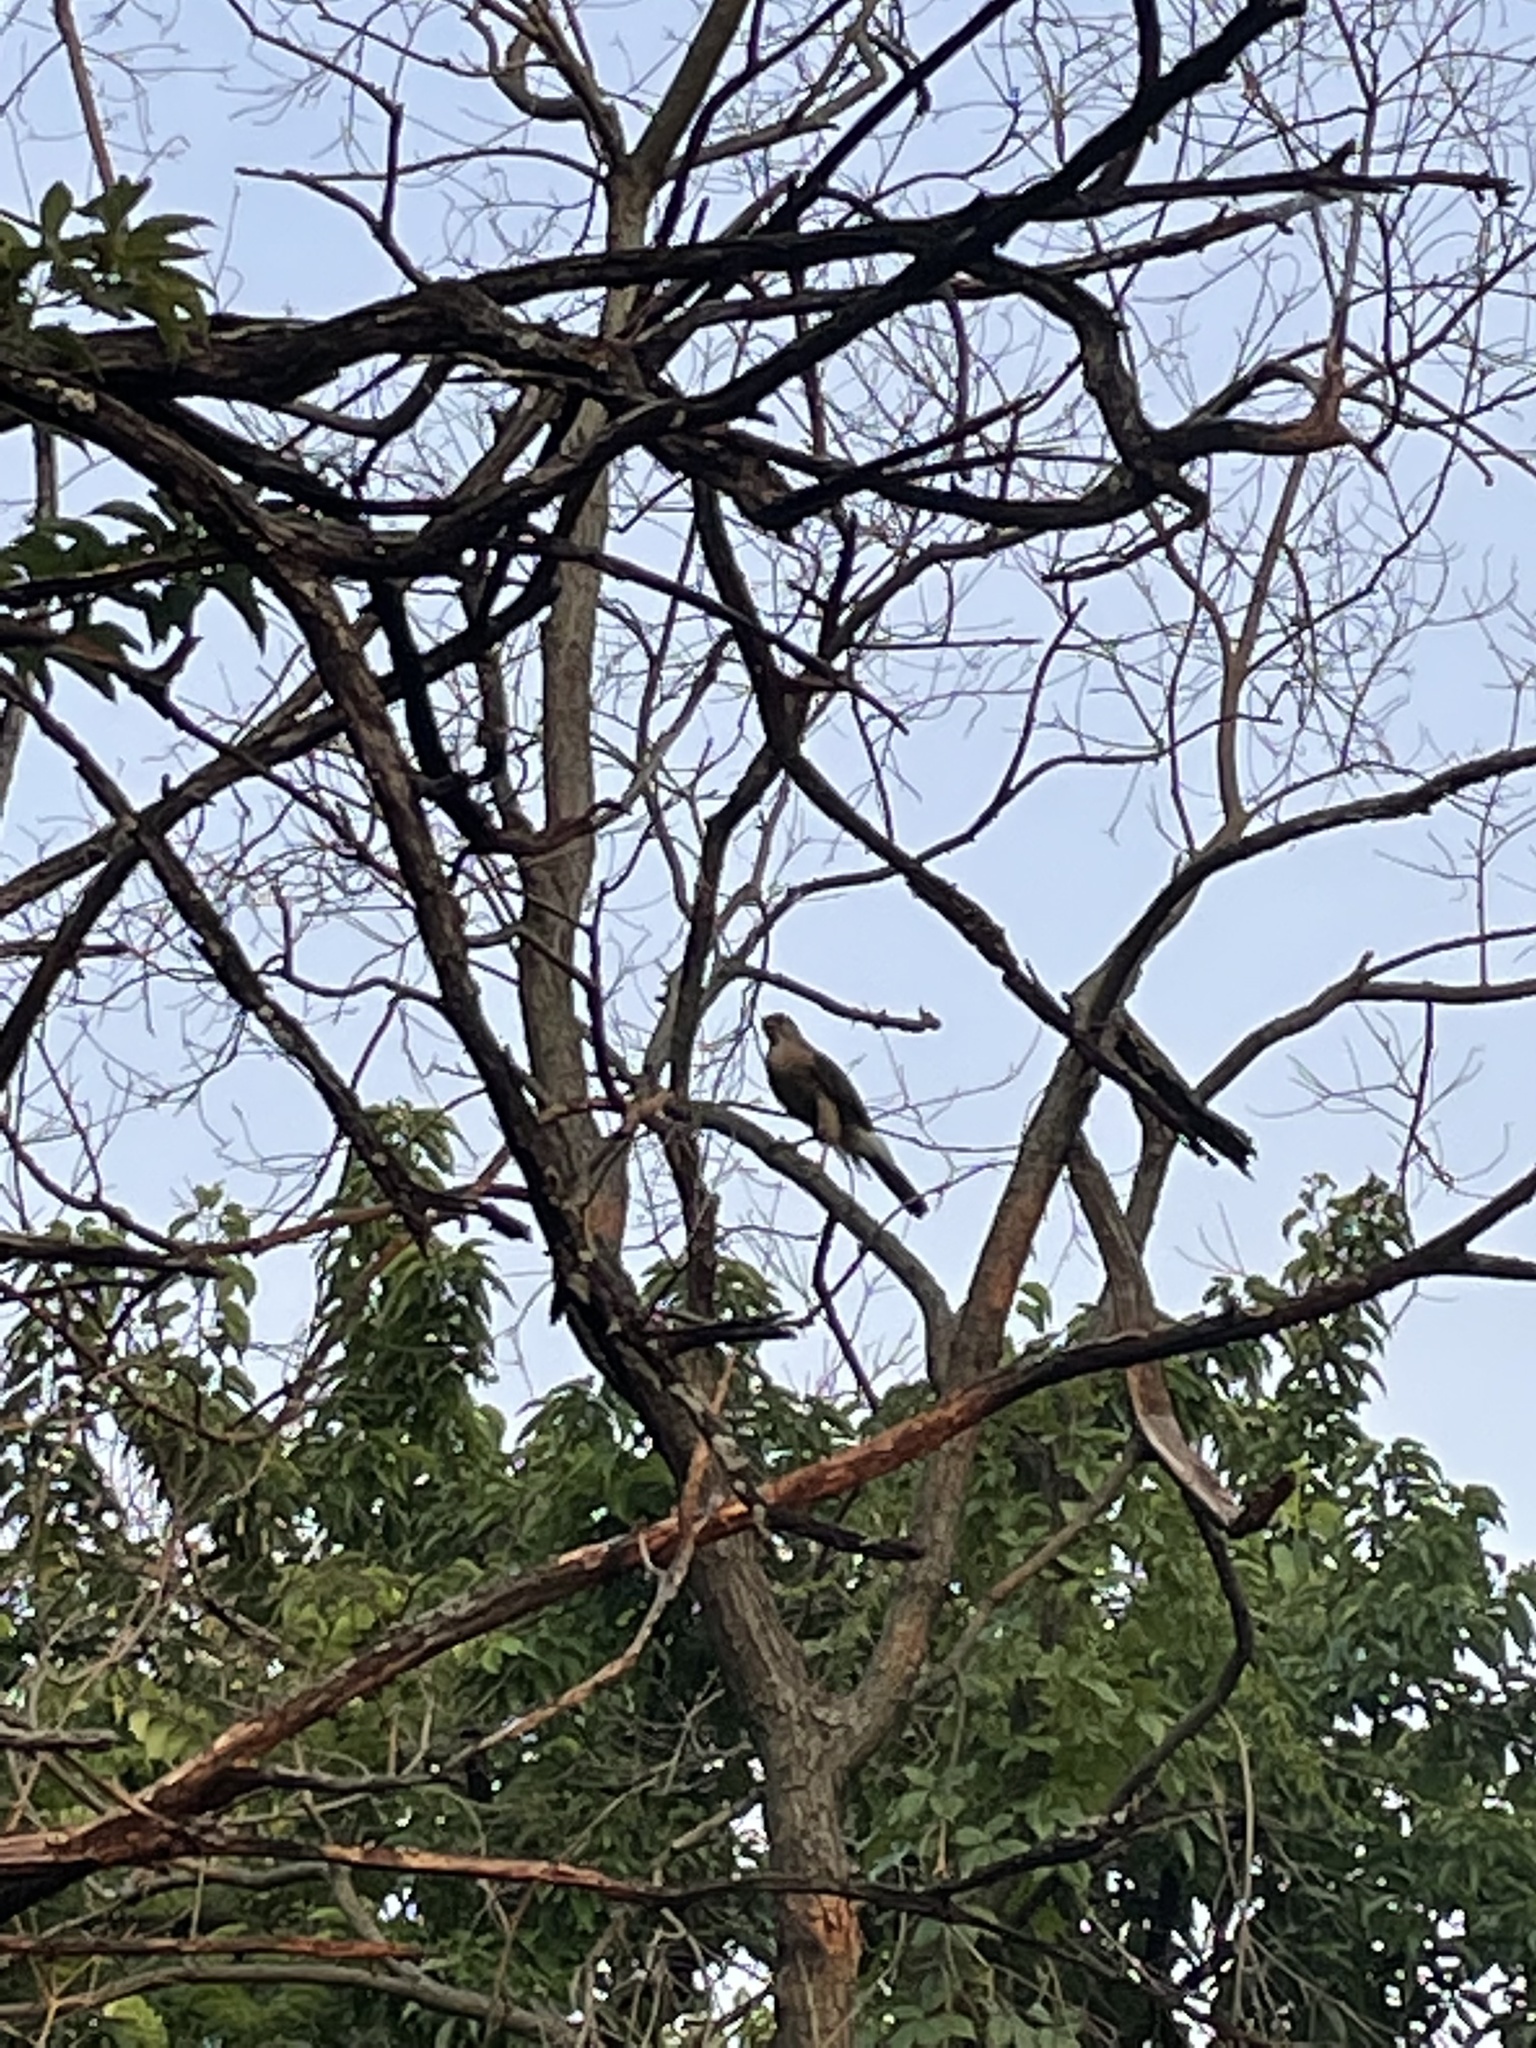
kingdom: Animalia
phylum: Chordata
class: Aves
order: Accipitriformes
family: Accipitridae
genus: Accipiter
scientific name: Accipiter cooperii
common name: Cooper's hawk
